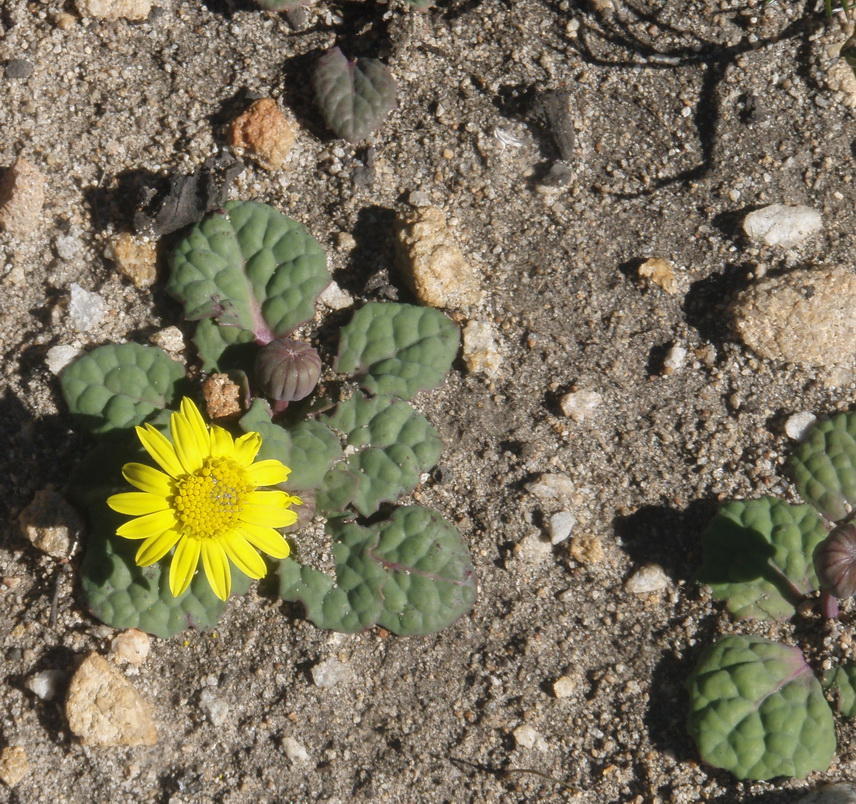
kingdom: Plantae
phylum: Tracheophyta
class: Magnoliopsida
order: Asterales
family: Asteraceae
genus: Othonna
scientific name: Othonna oleracea
